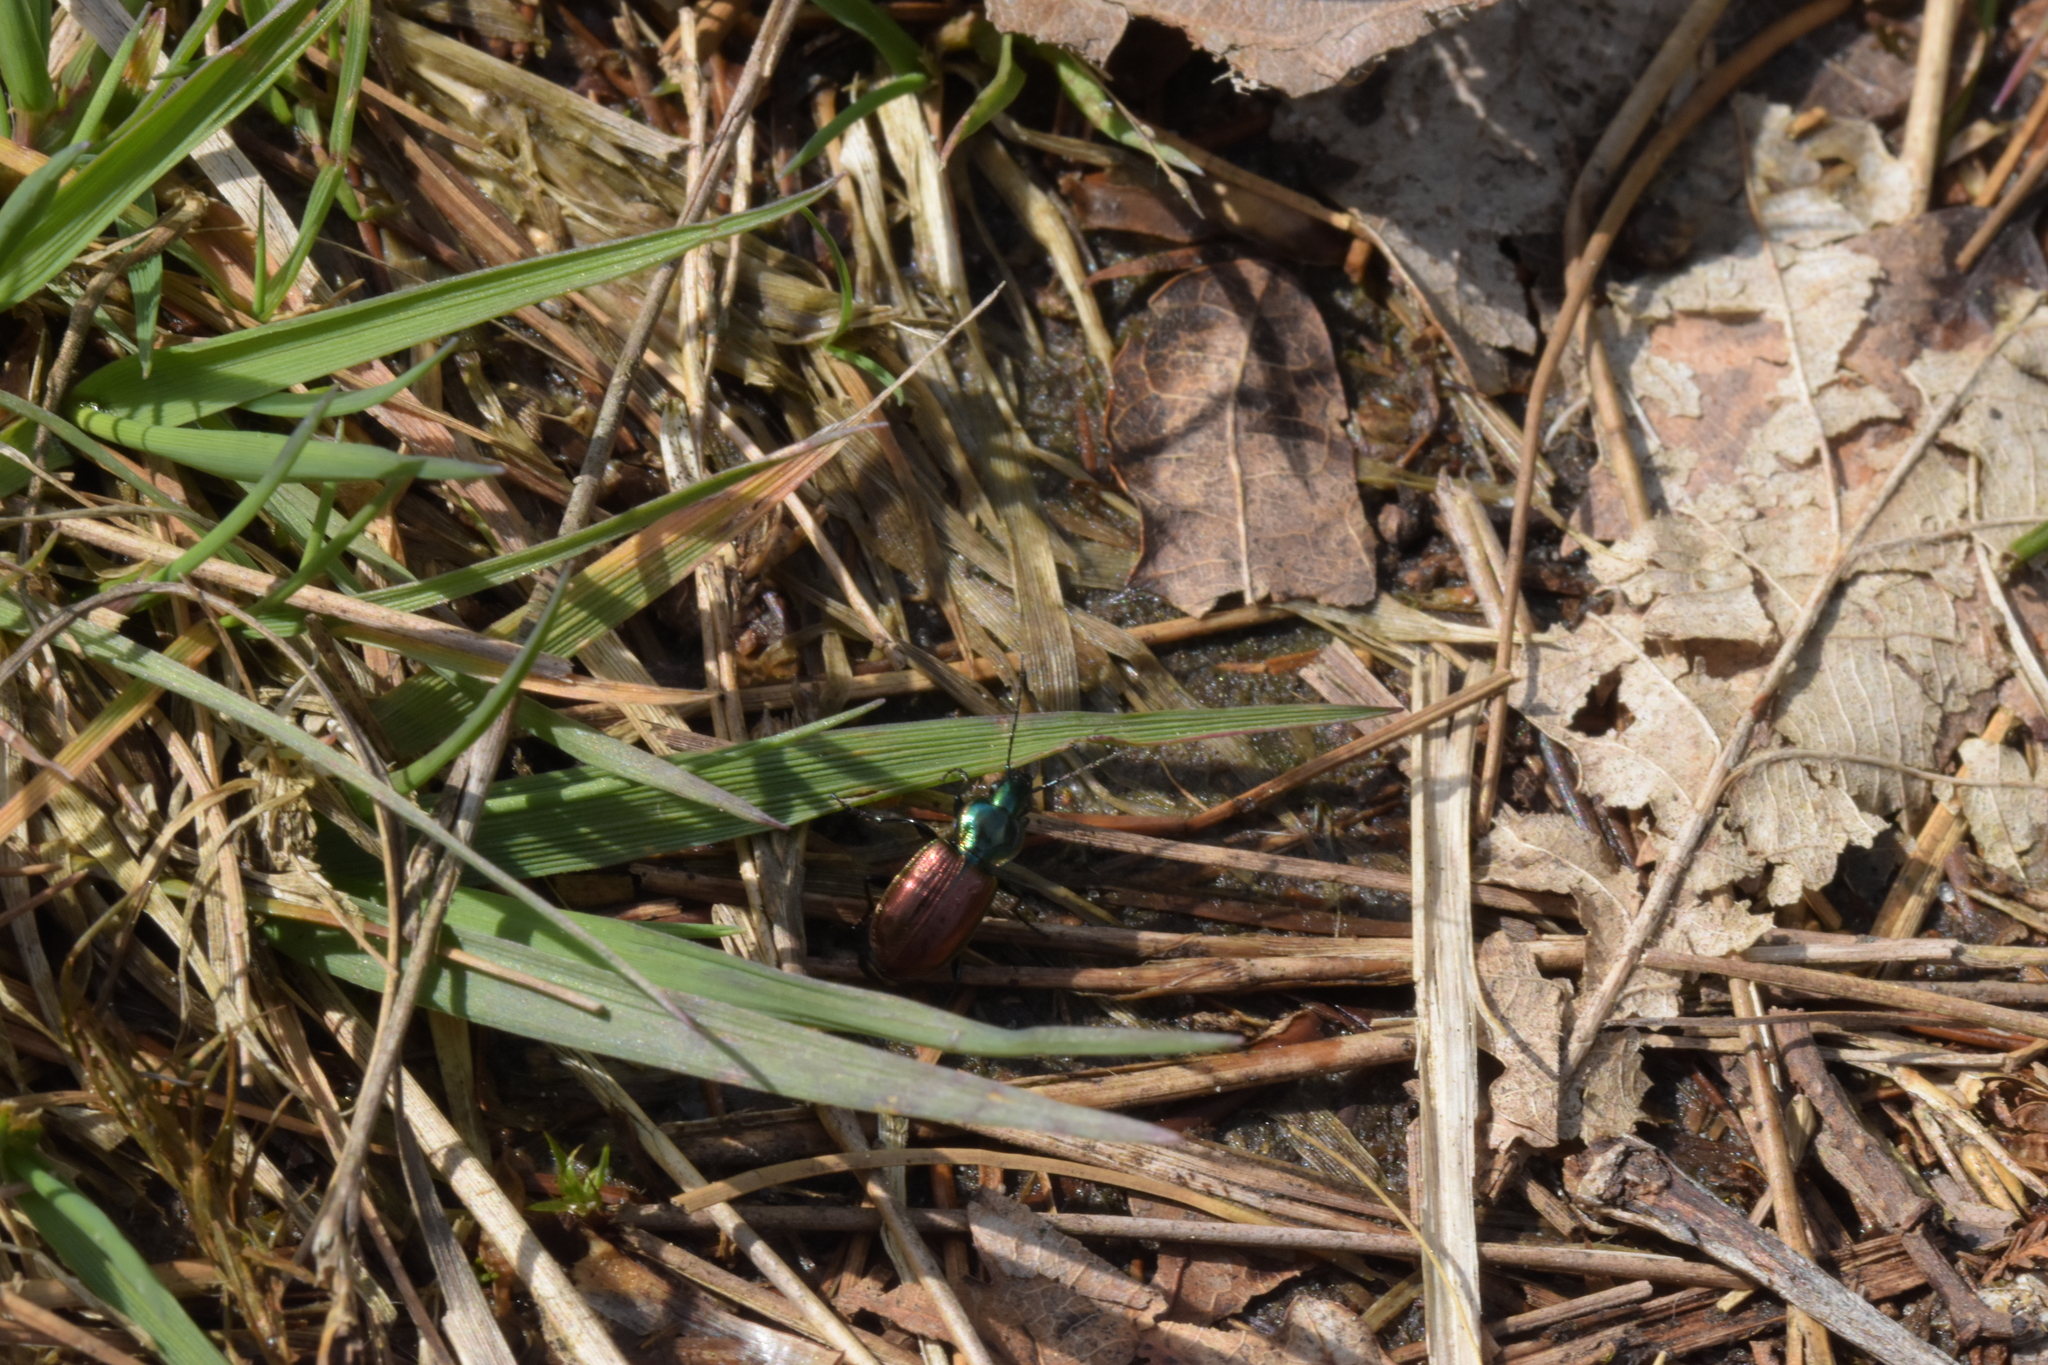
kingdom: Animalia
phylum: Arthropoda
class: Insecta
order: Coleoptera
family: Carabidae
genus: Agonum
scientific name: Agonum sexpunctatum
